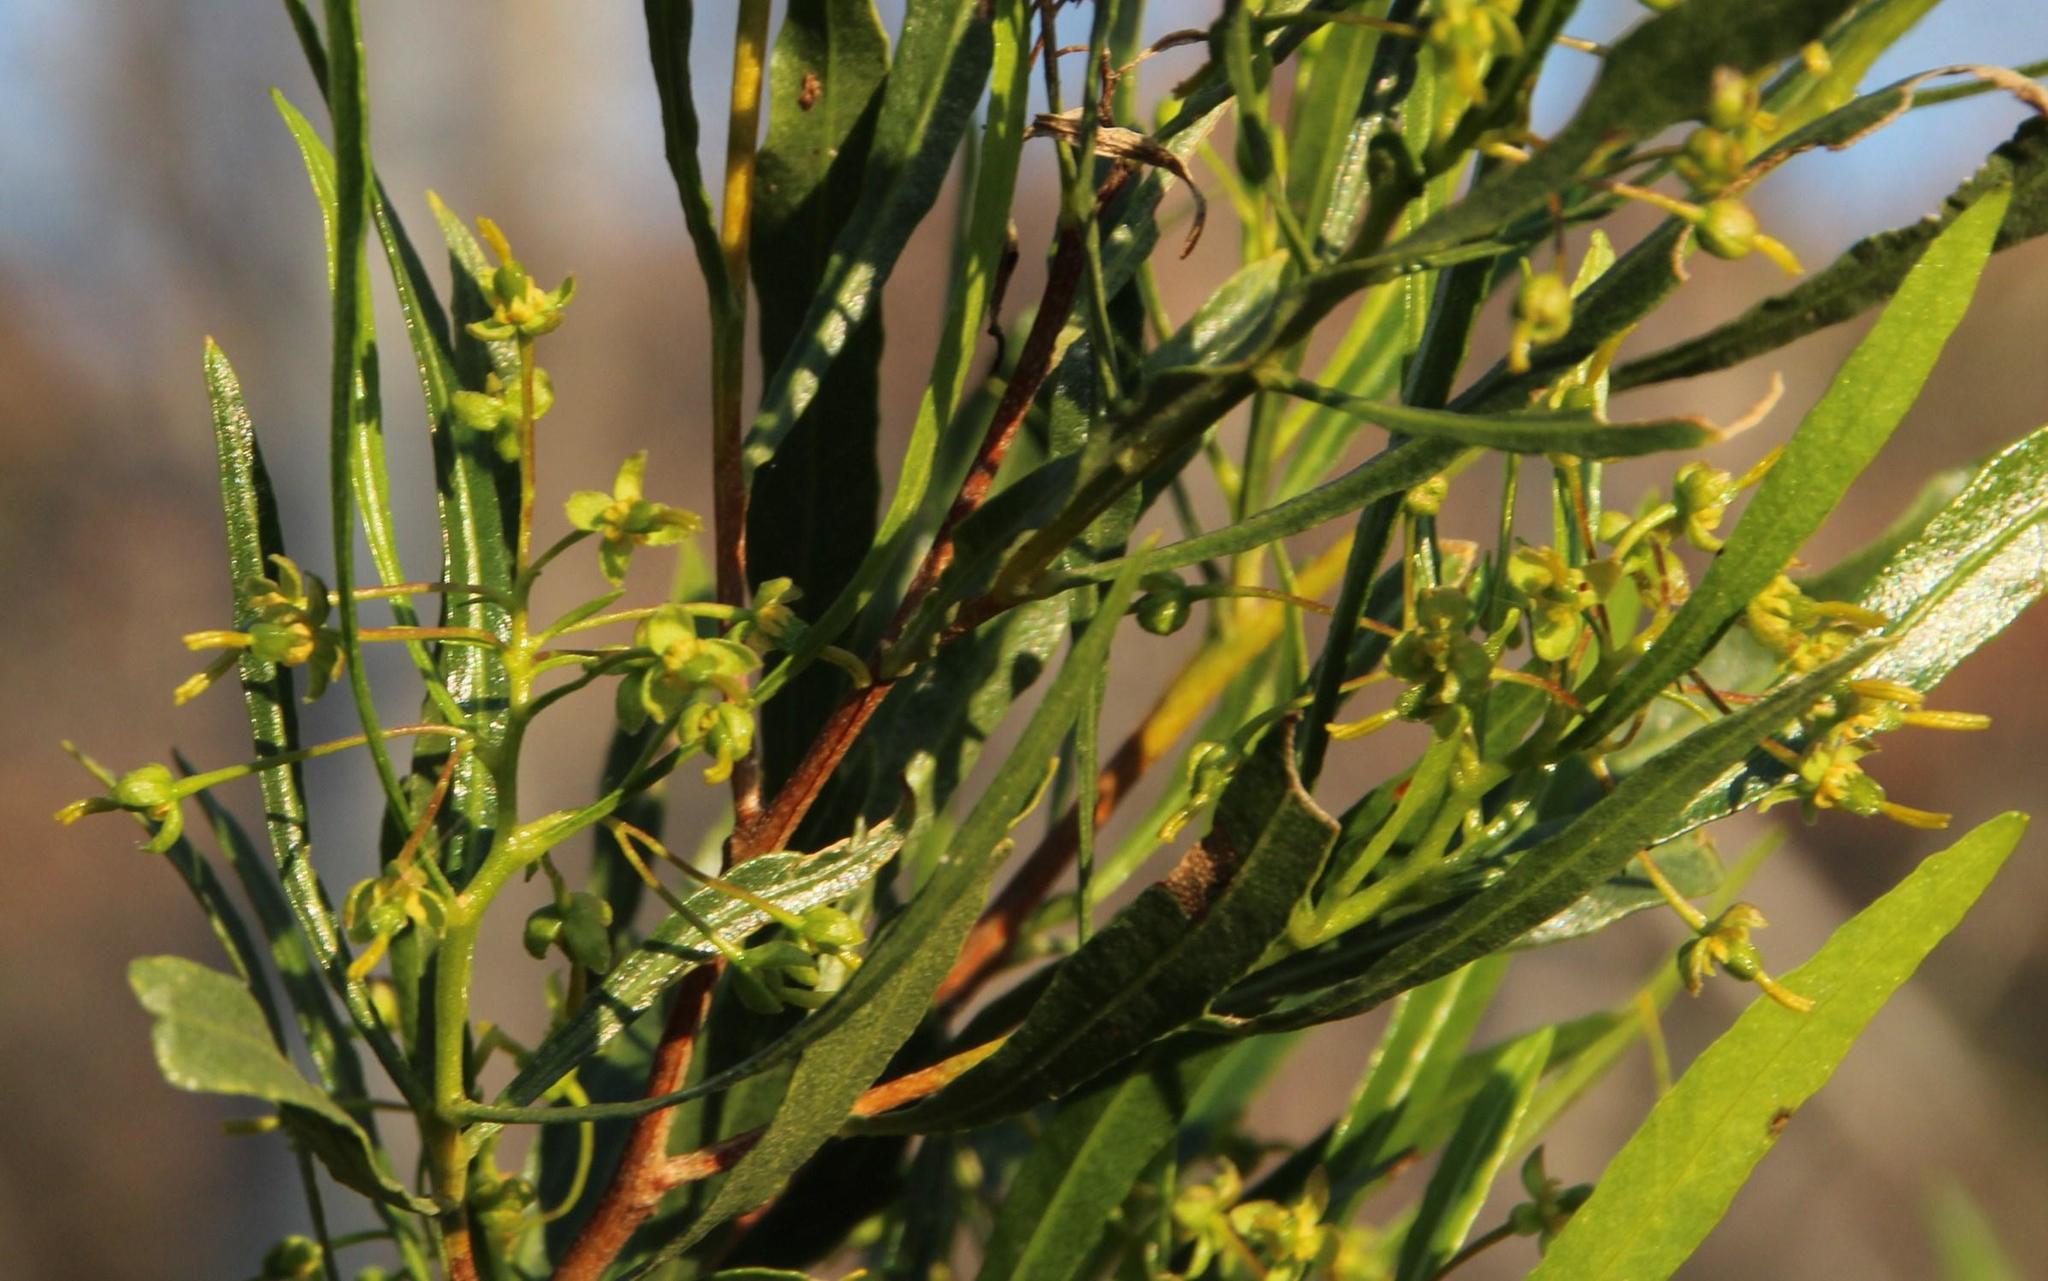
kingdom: Plantae
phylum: Tracheophyta
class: Magnoliopsida
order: Sapindales
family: Sapindaceae
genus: Dodonaea
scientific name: Dodonaea viscosa
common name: Hopbush
